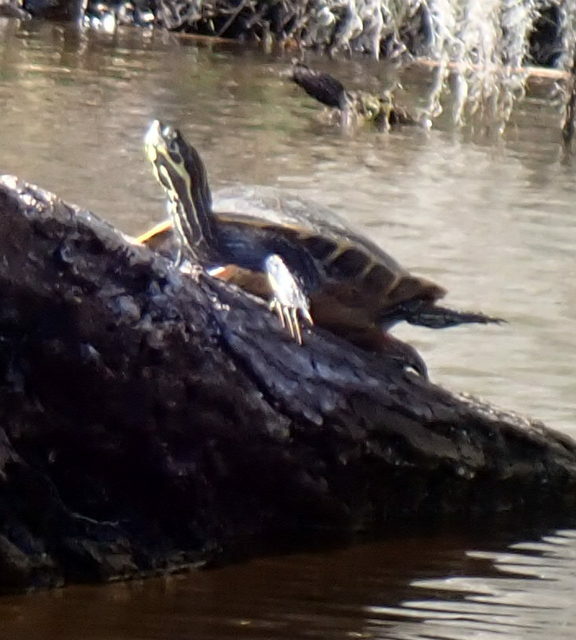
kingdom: Animalia
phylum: Chordata
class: Testudines
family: Emydidae
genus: Pseudemys
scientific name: Pseudemys concinna
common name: Eastern river cooter
